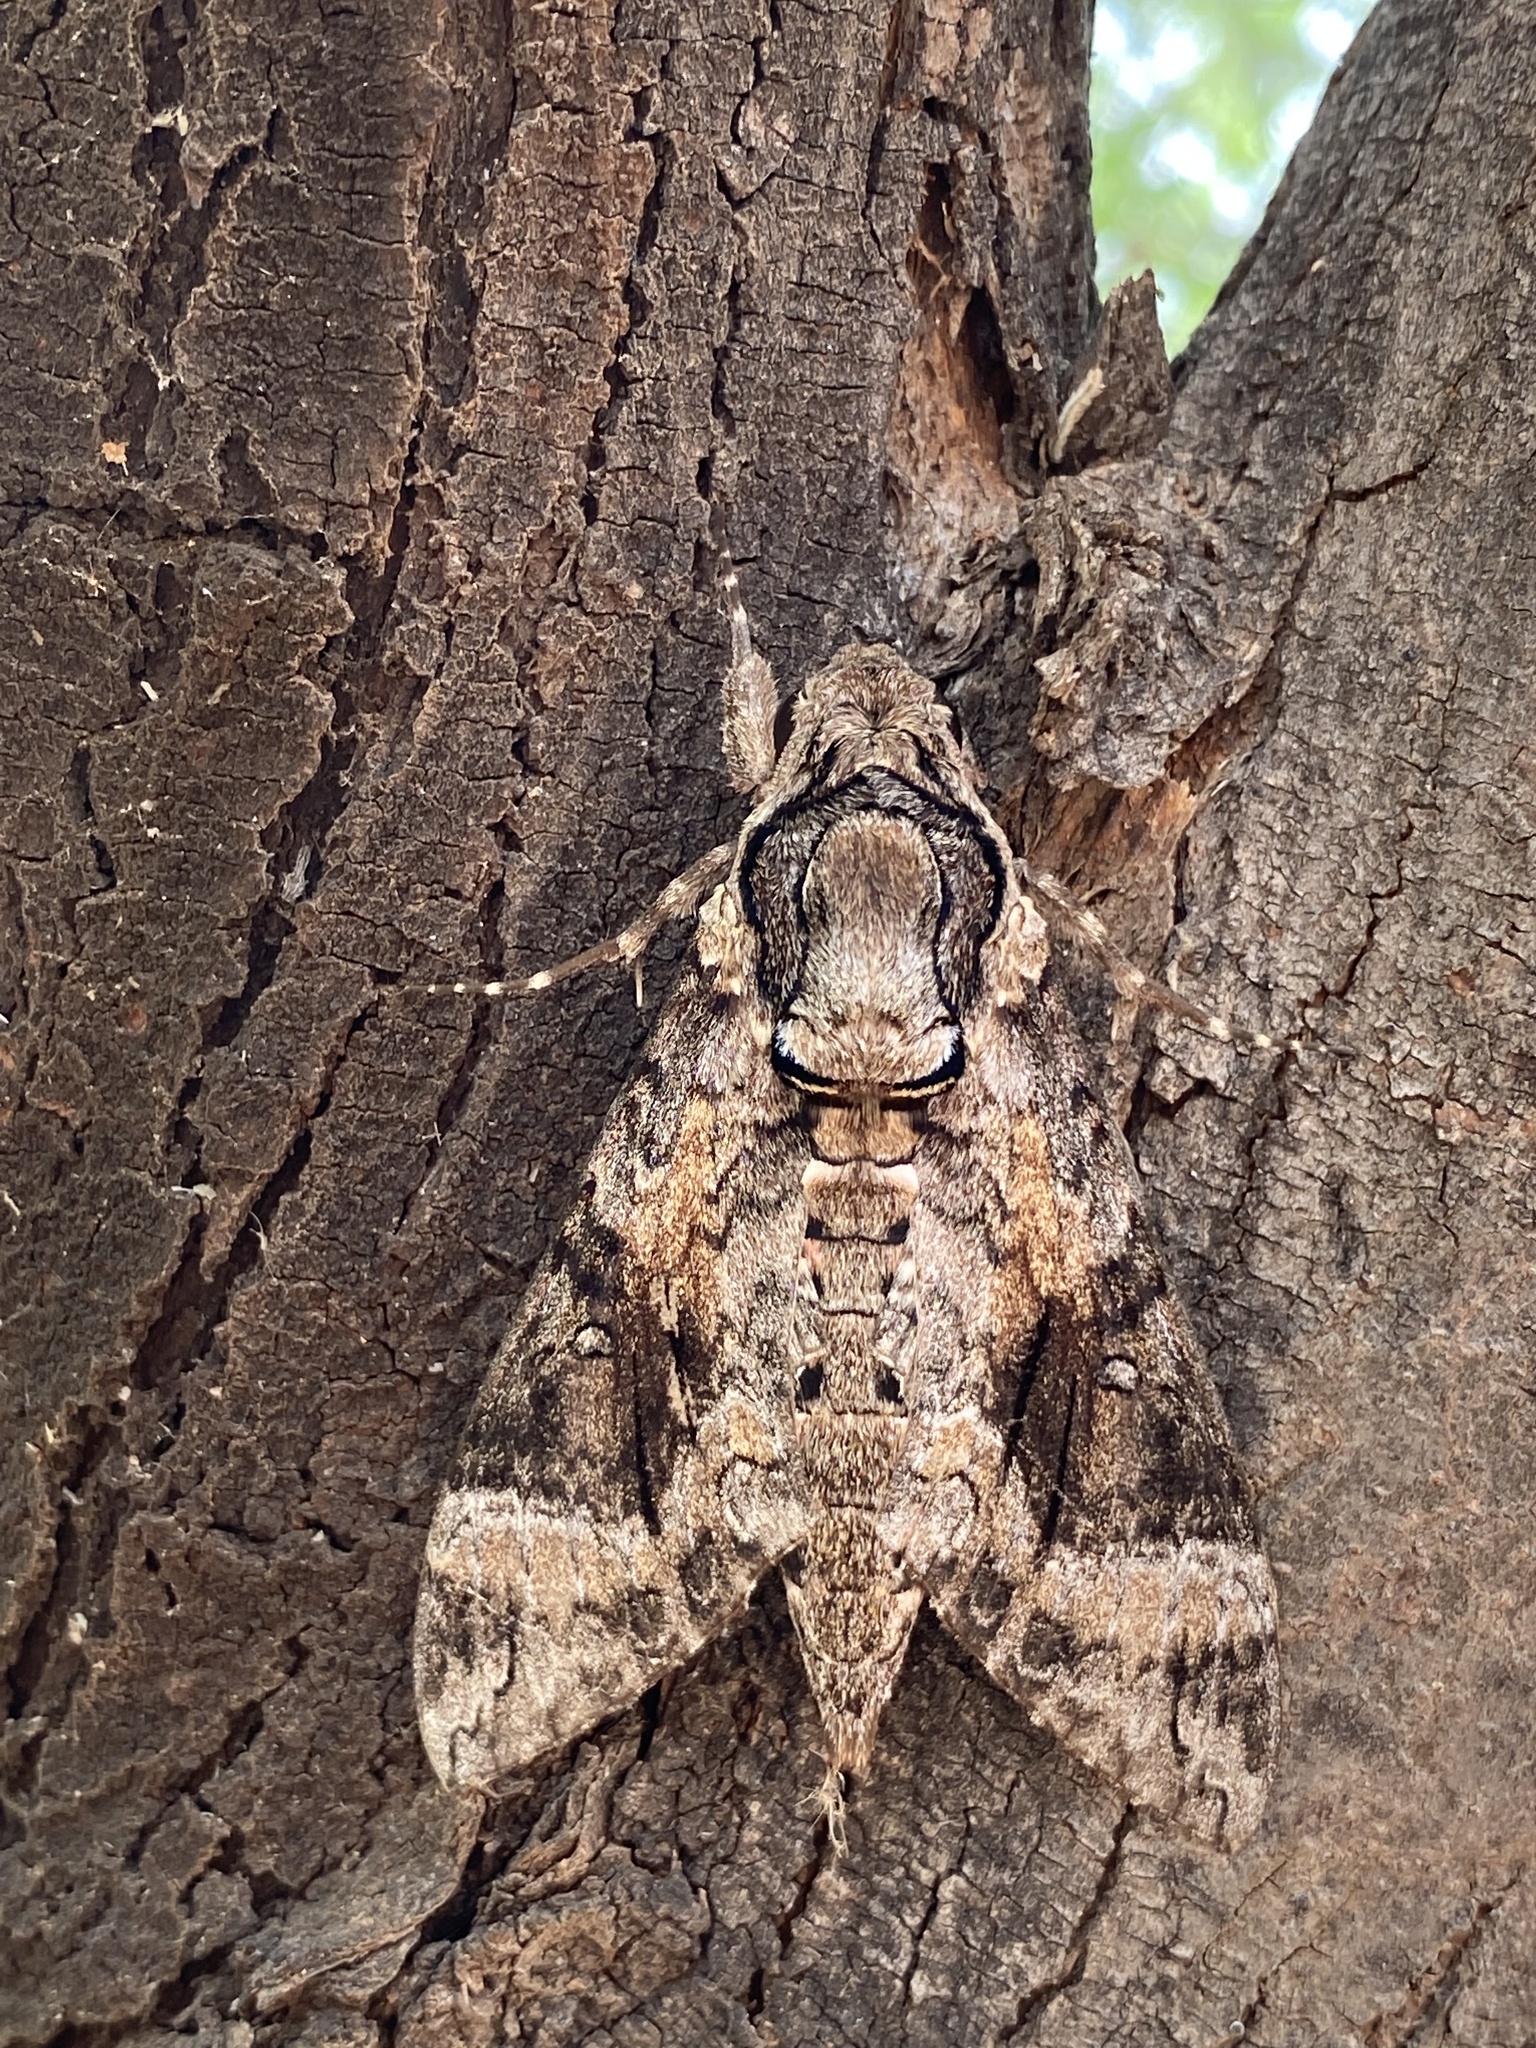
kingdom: Animalia
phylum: Arthropoda
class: Insecta
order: Lepidoptera
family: Sphingidae
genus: Agrius
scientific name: Agrius cingulata
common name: Pink-spotted hawkmoth
